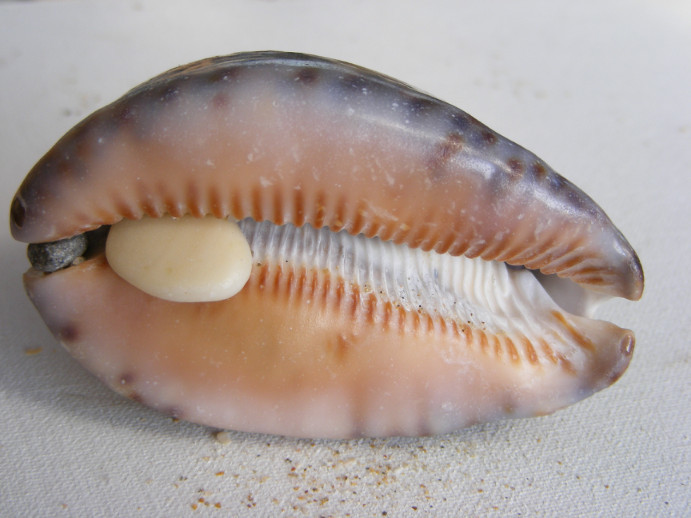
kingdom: Animalia
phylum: Mollusca
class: Gastropoda
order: Littorinimorpha
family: Cypraeidae
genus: Mauritia
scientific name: Mauritia arabica
